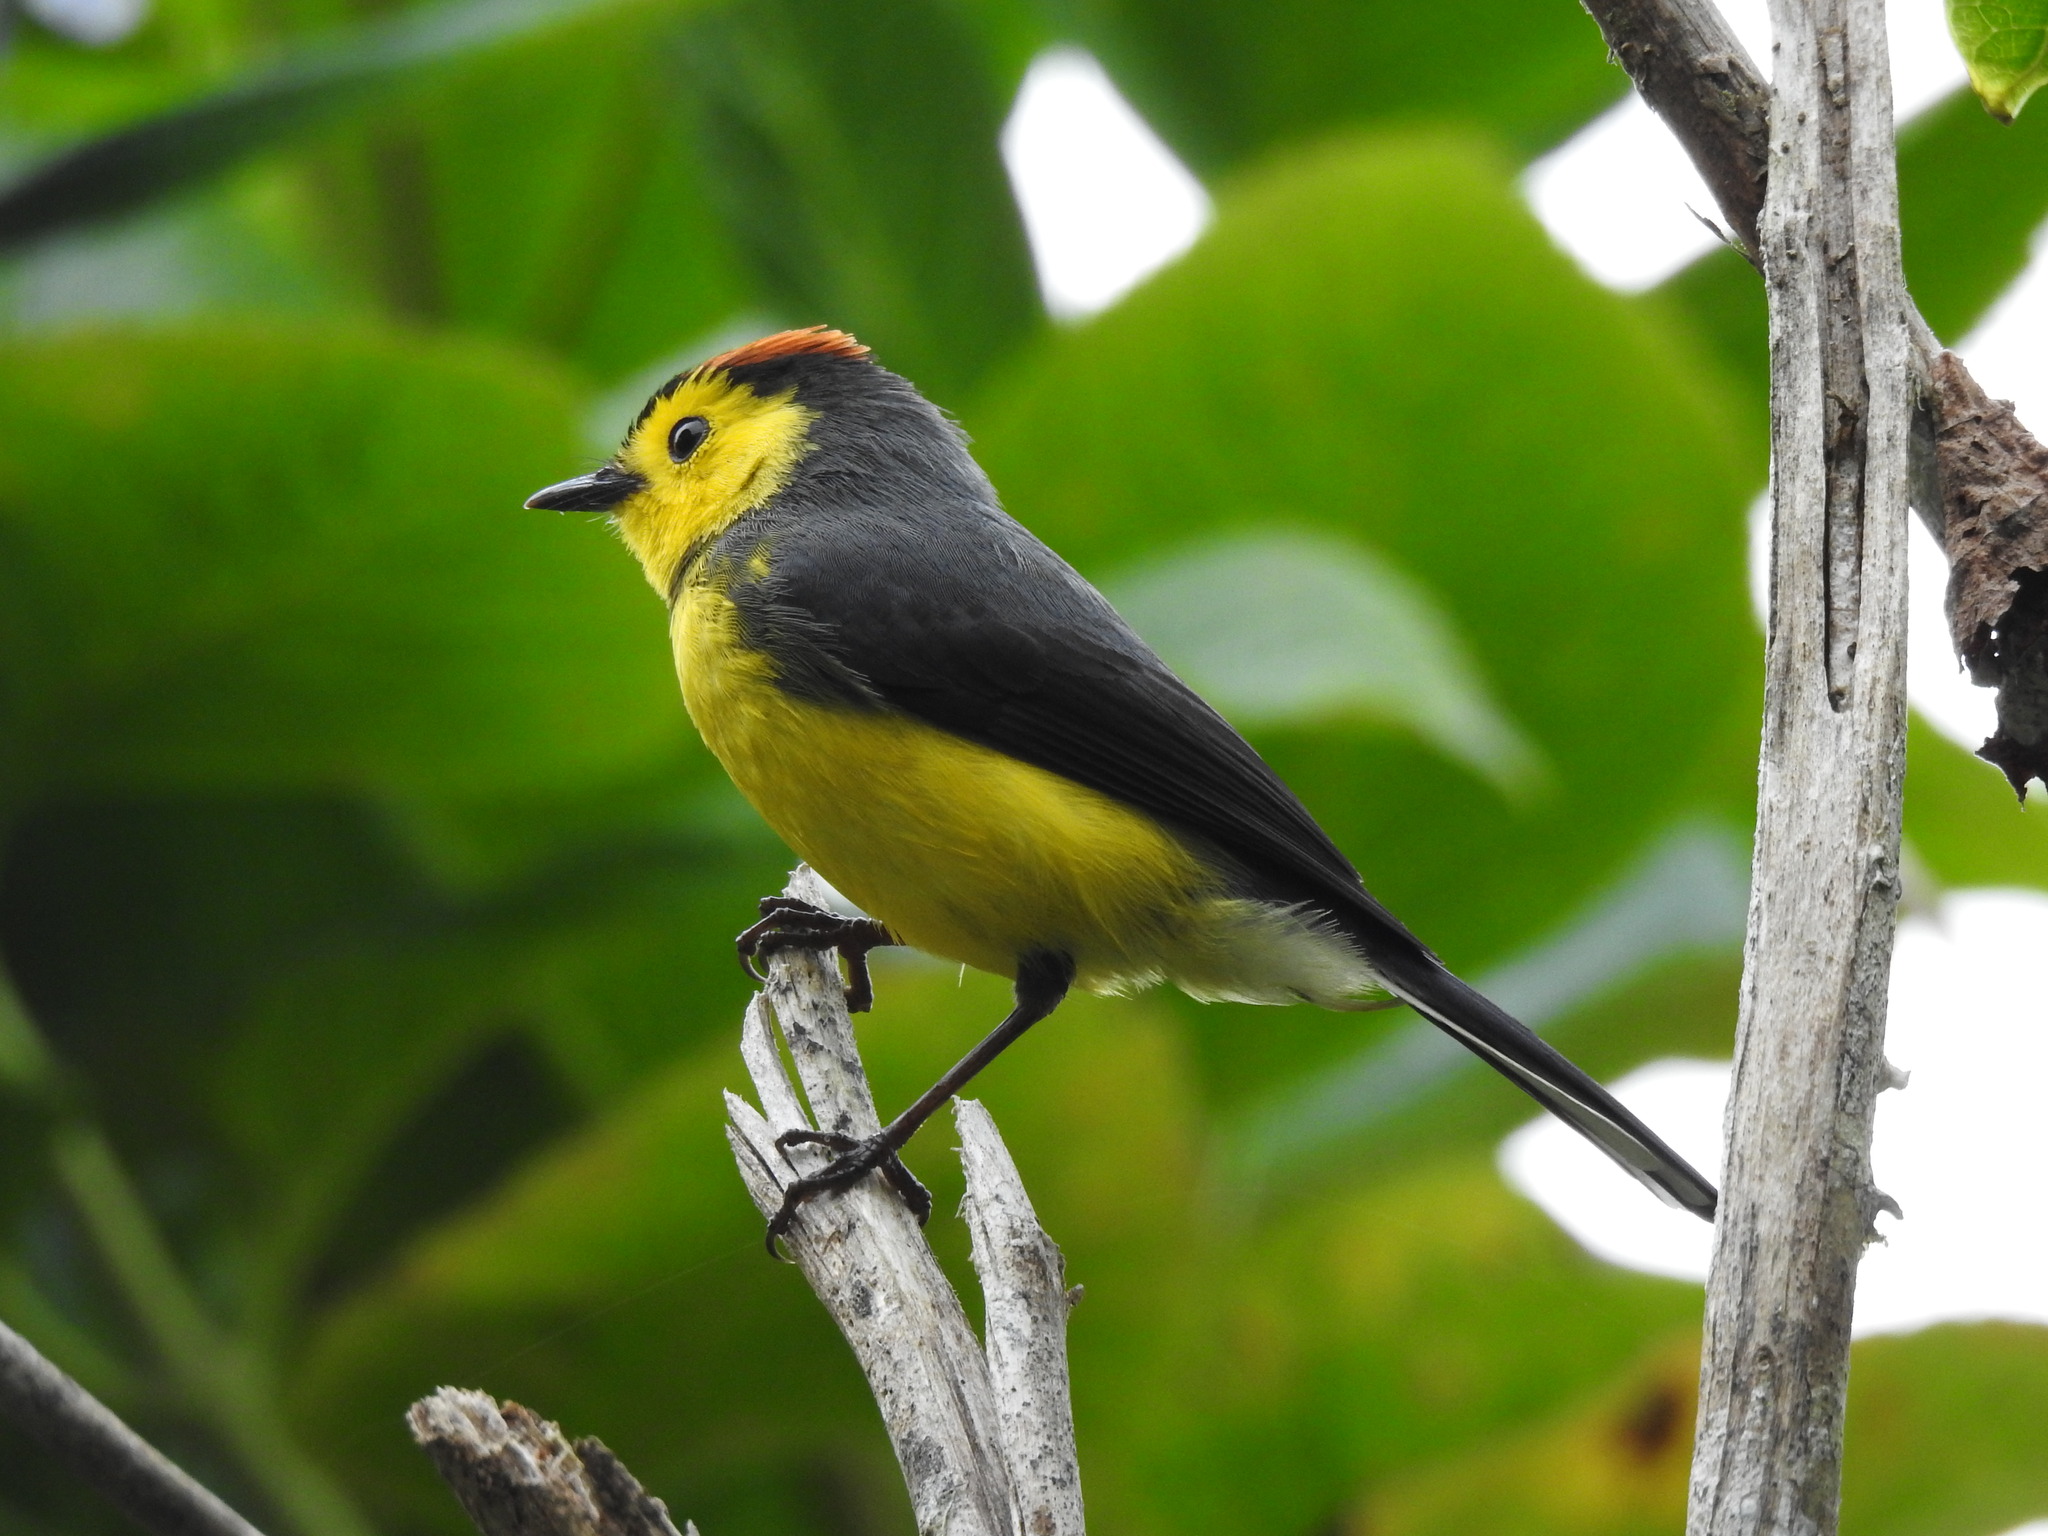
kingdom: Animalia
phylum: Chordata
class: Aves
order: Passeriformes
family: Parulidae
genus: Myioborus
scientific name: Myioborus torquatus
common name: Collared whitestart
